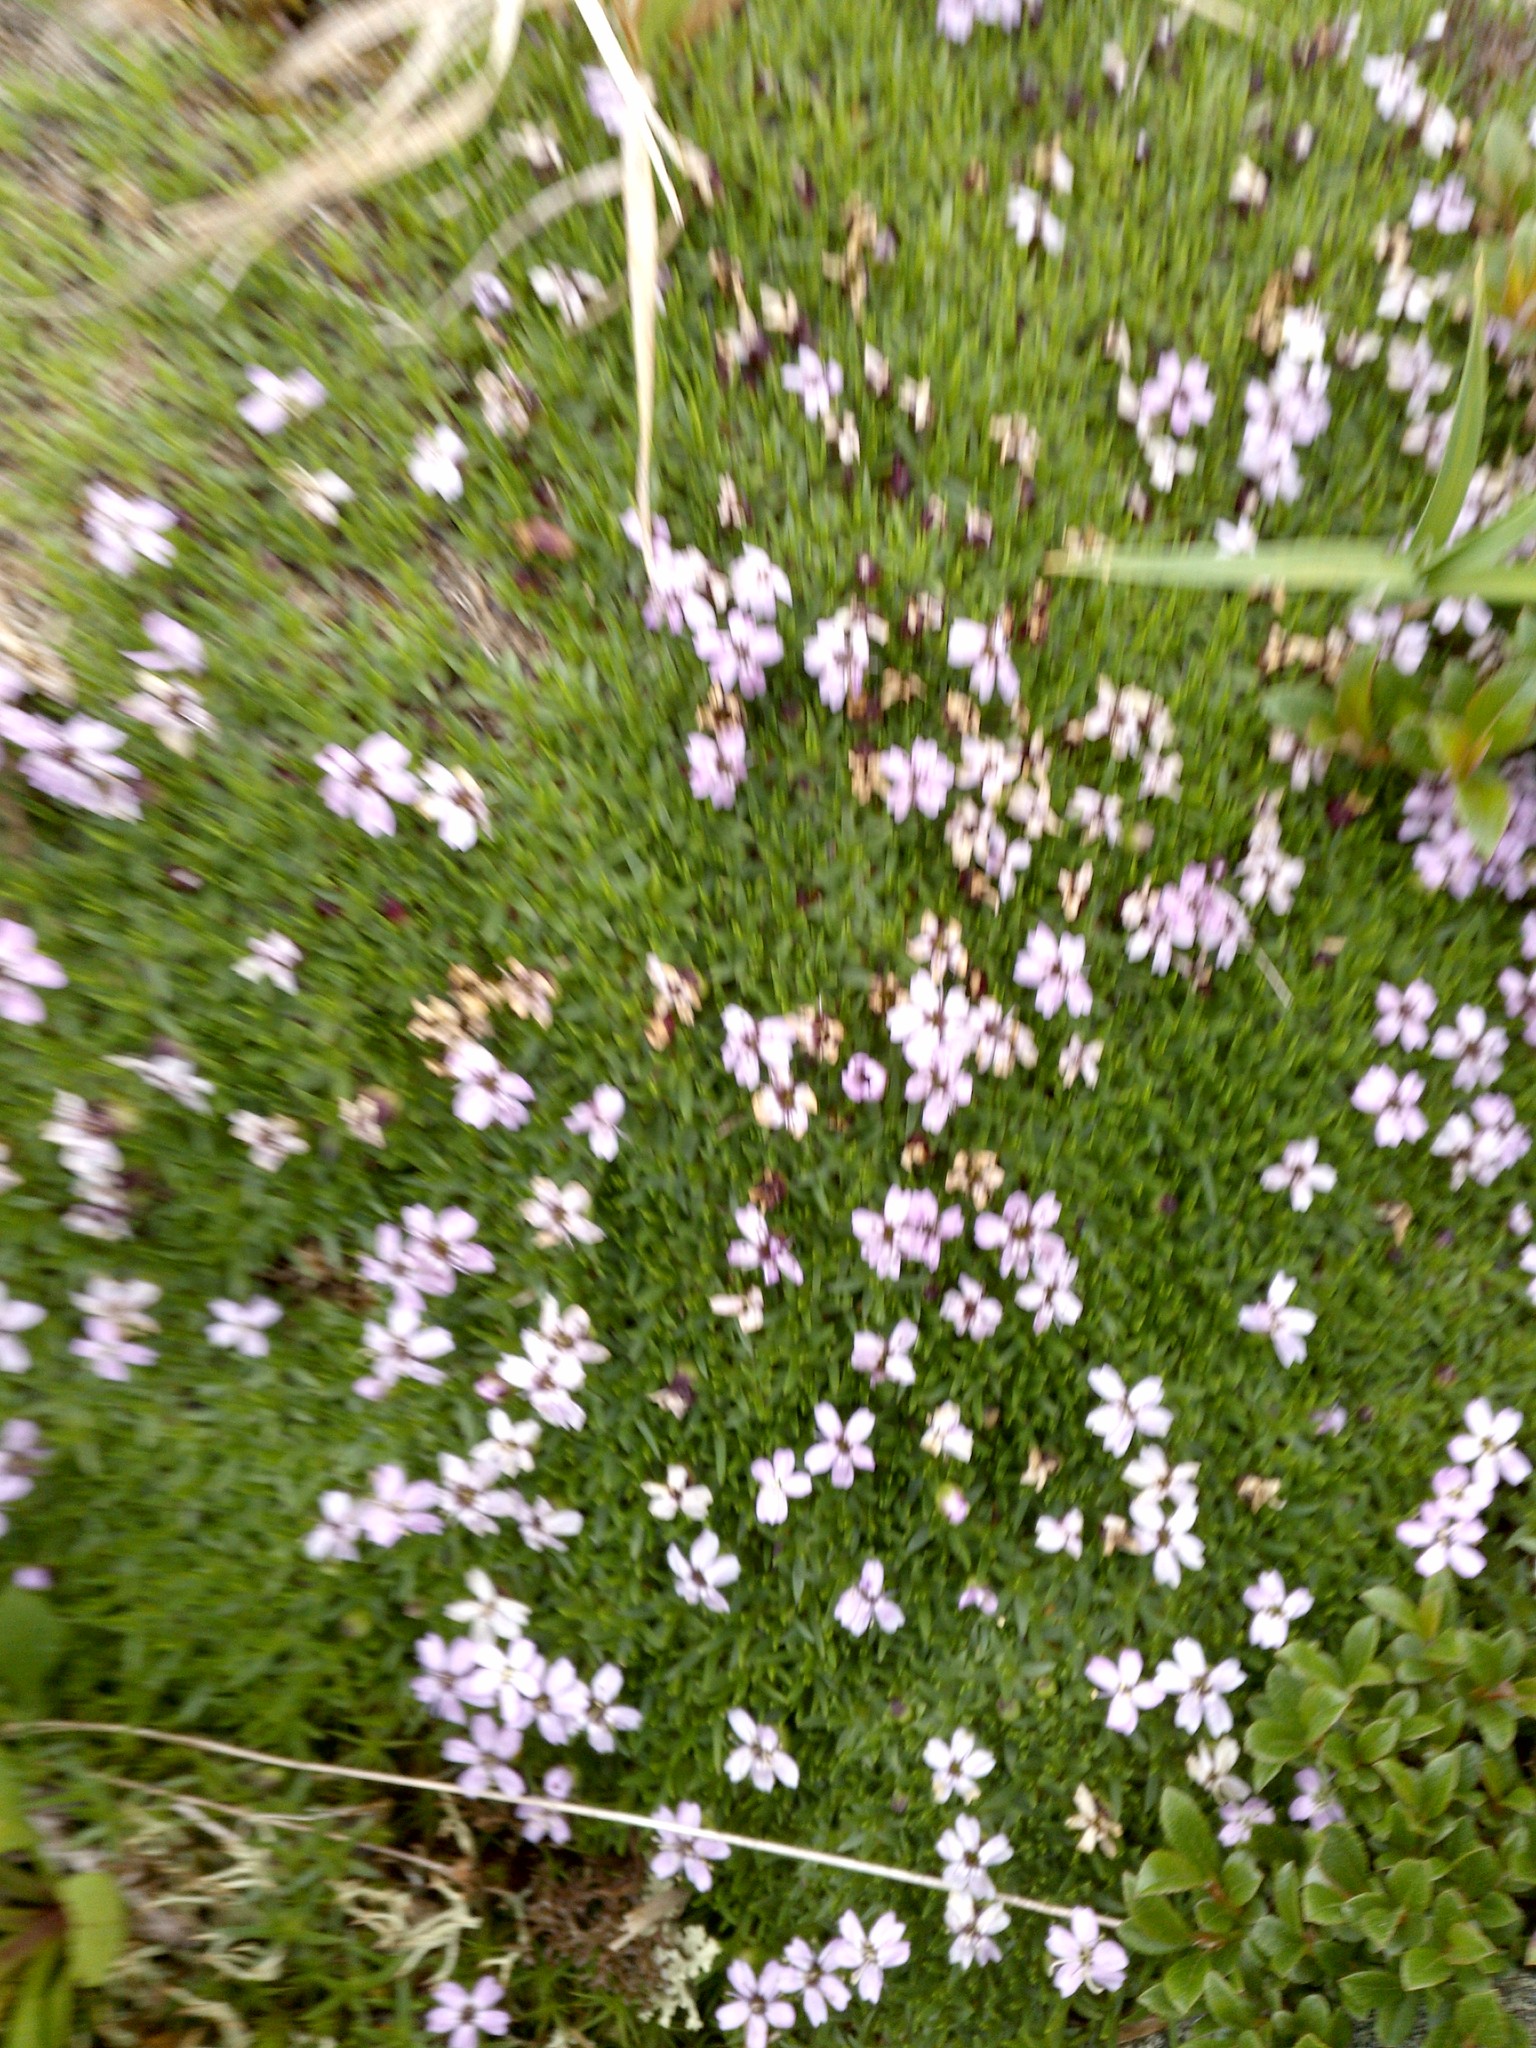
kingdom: Plantae
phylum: Tracheophyta
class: Magnoliopsida
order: Caryophyllales
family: Caryophyllaceae
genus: Silene
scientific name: Silene acaulis
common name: Moss campion
